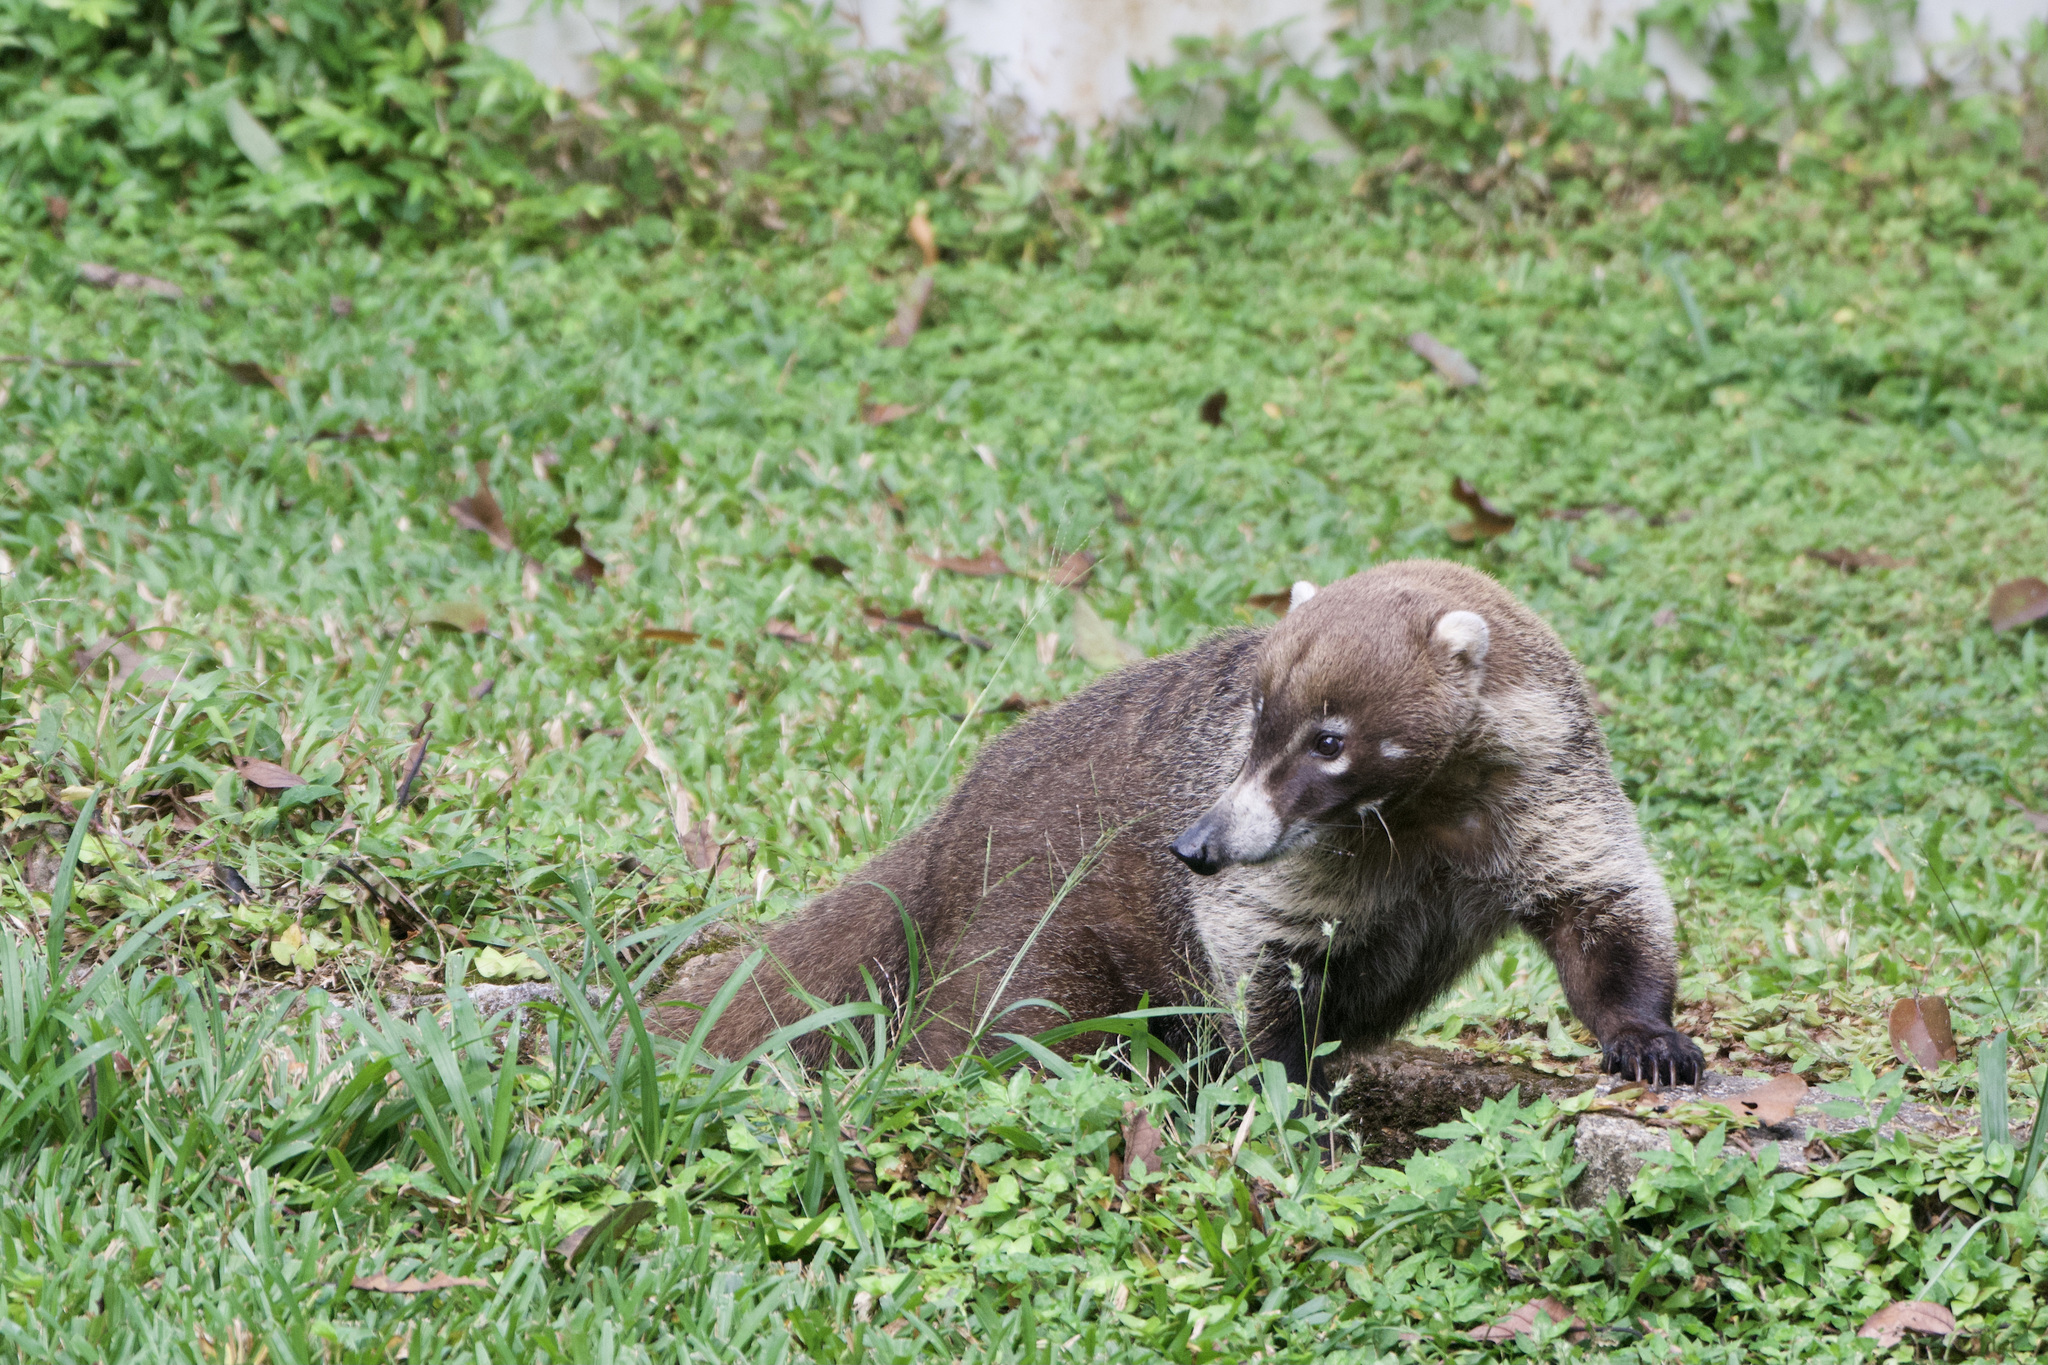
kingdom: Animalia
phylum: Chordata
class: Mammalia
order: Carnivora
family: Procyonidae
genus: Nasua
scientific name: Nasua narica
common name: White-nosed coati
